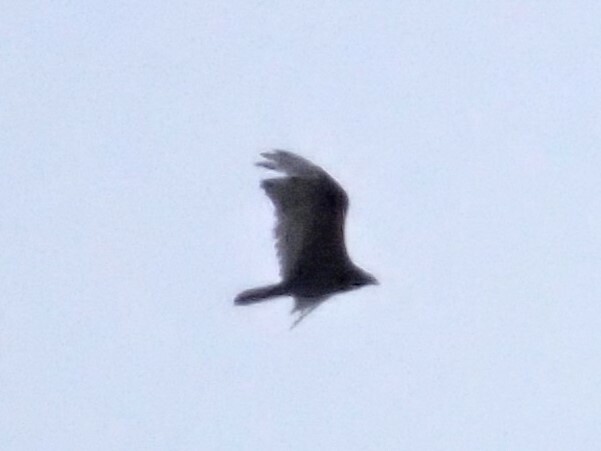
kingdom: Animalia
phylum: Chordata
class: Aves
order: Accipitriformes
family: Cathartidae
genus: Cathartes
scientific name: Cathartes aura
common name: Turkey vulture
